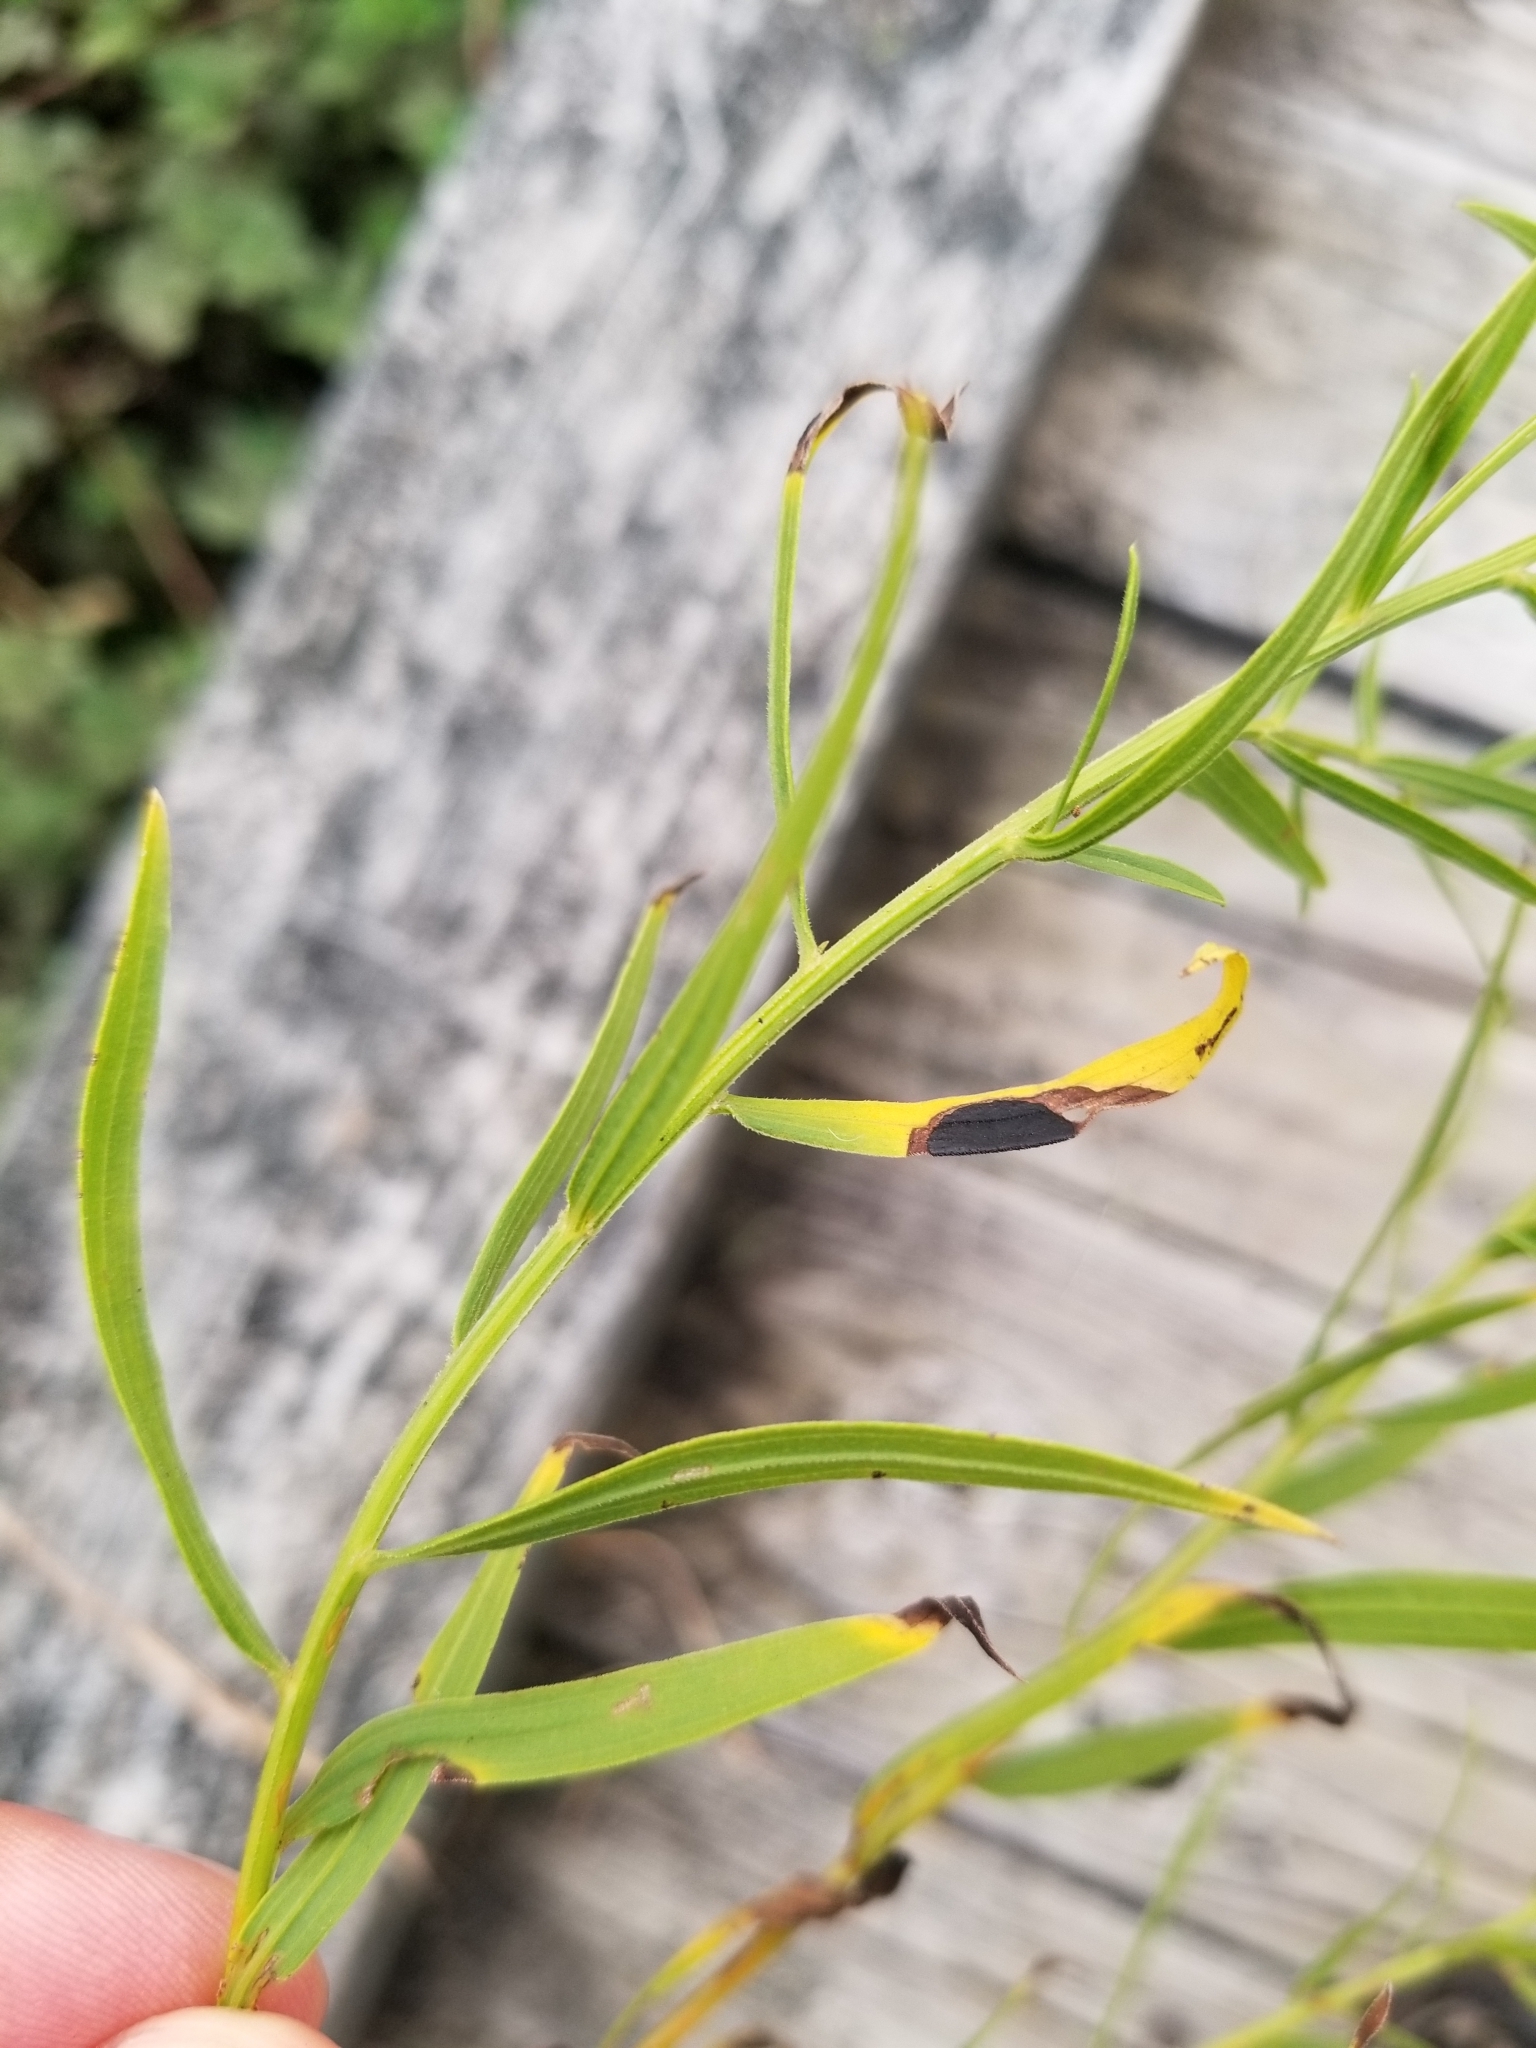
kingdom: Animalia
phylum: Arthropoda
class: Insecta
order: Diptera
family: Cecidomyiidae
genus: Asteromyia
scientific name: Asteromyia euthamiae
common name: Euthamia leaf gall midge
